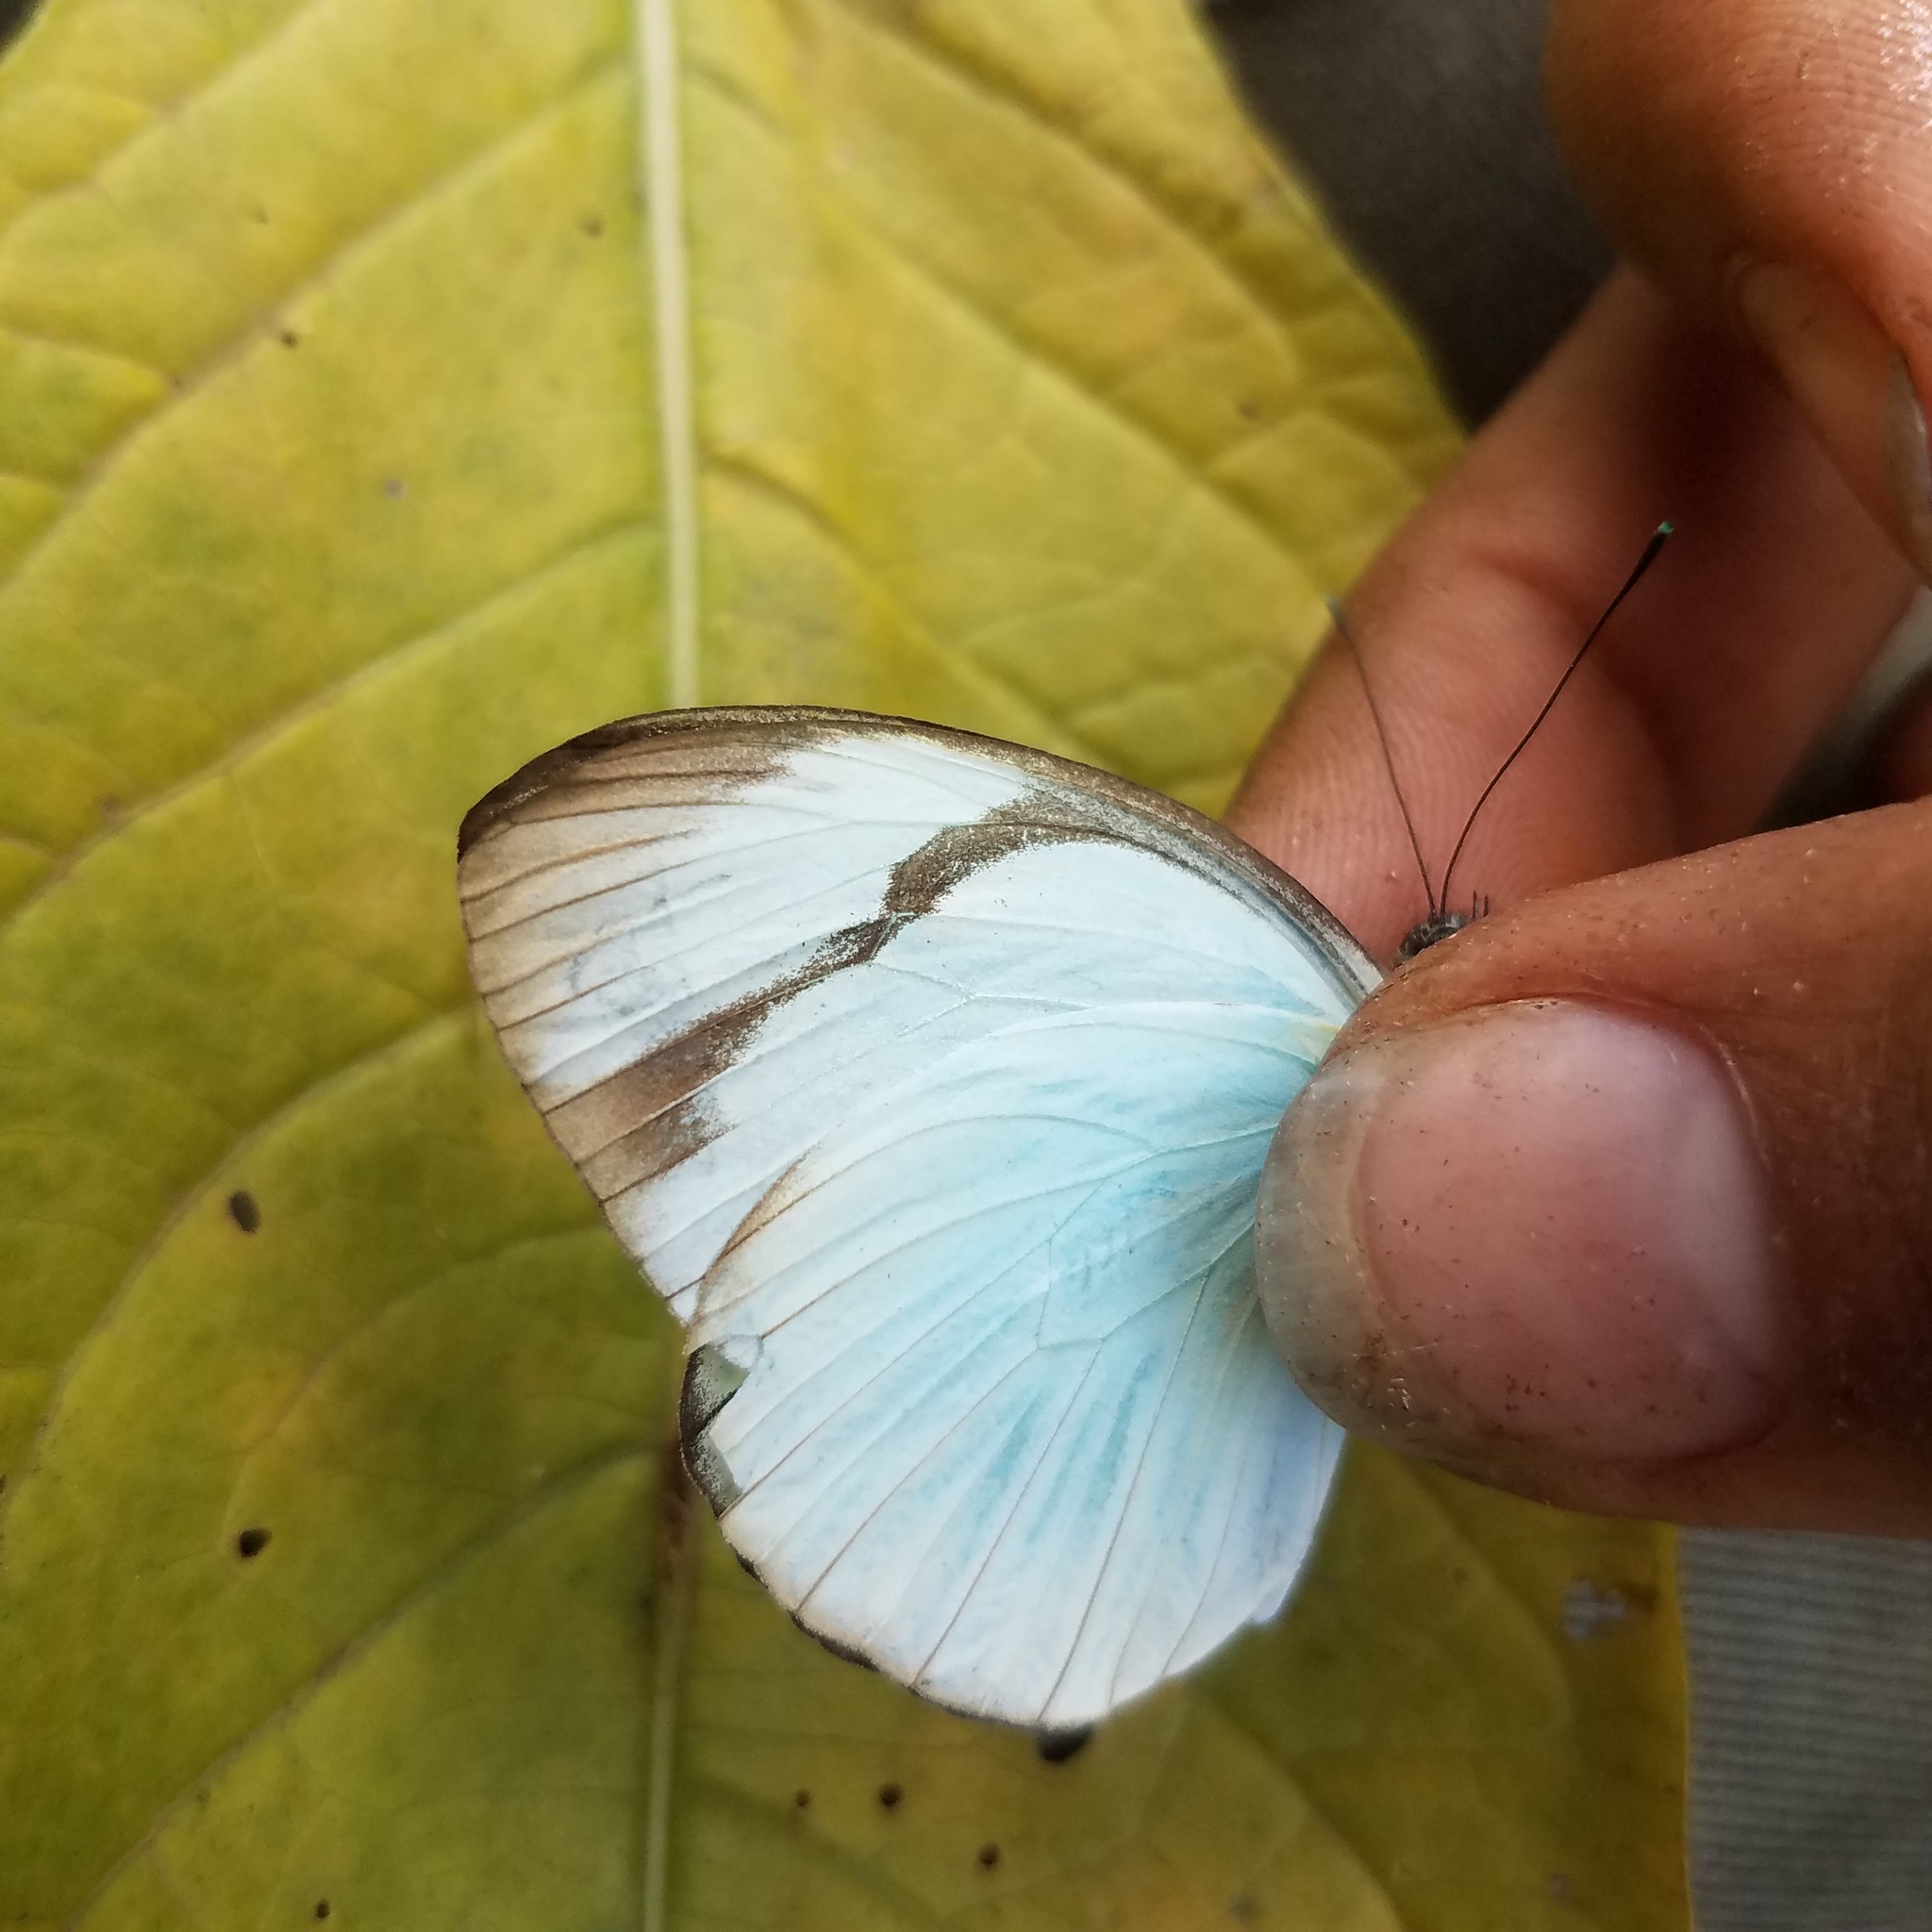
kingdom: Animalia
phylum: Arthropoda
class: Insecta
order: Lepidoptera
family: Pieridae
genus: Itaballia
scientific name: Itaballia demophile
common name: Cross-barred white
